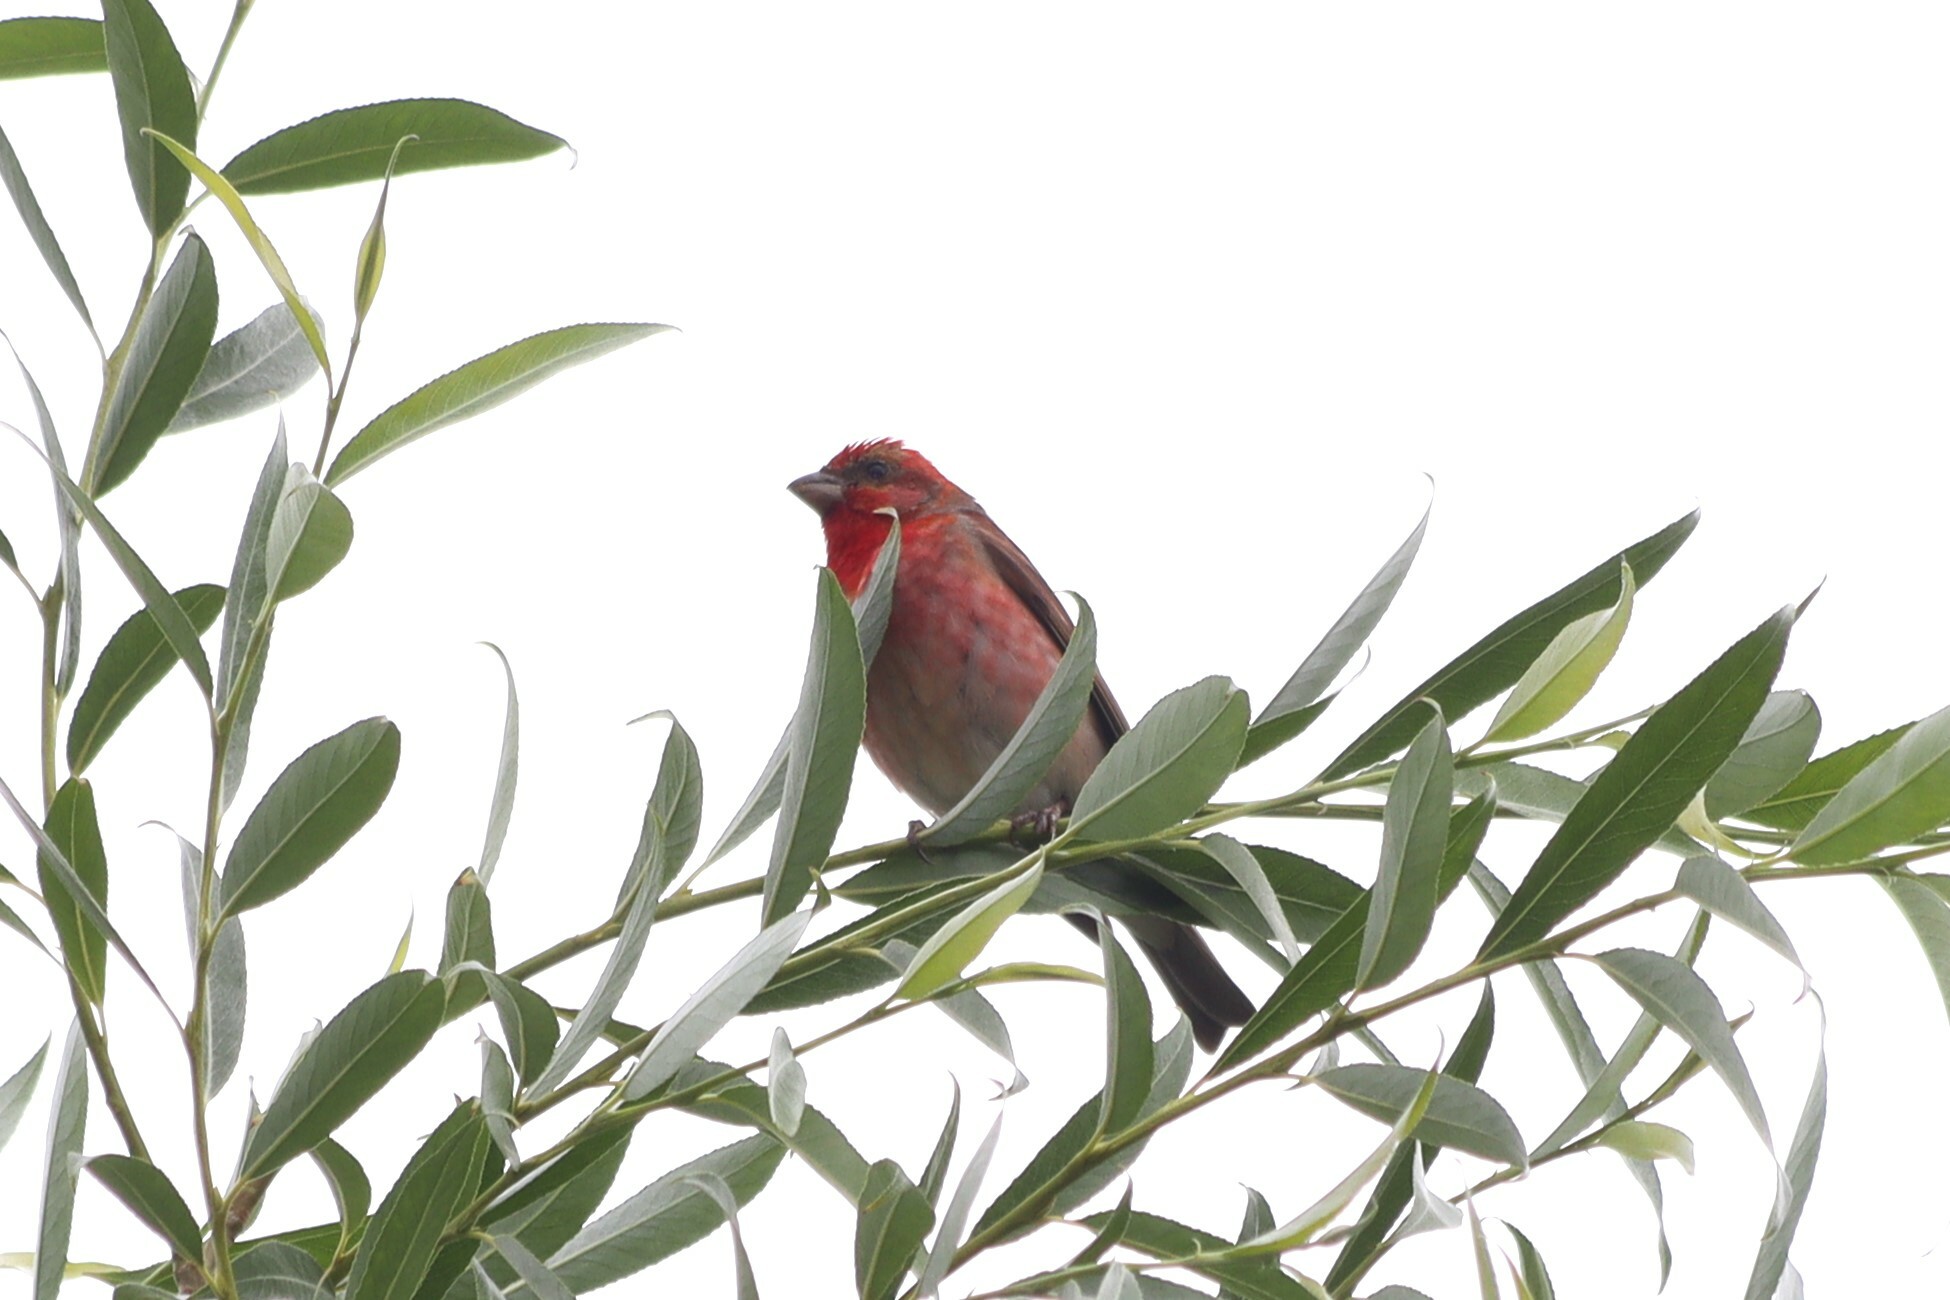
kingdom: Animalia
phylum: Chordata
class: Aves
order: Passeriformes
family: Fringillidae
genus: Carpodacus
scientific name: Carpodacus erythrinus
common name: Common rosefinch
